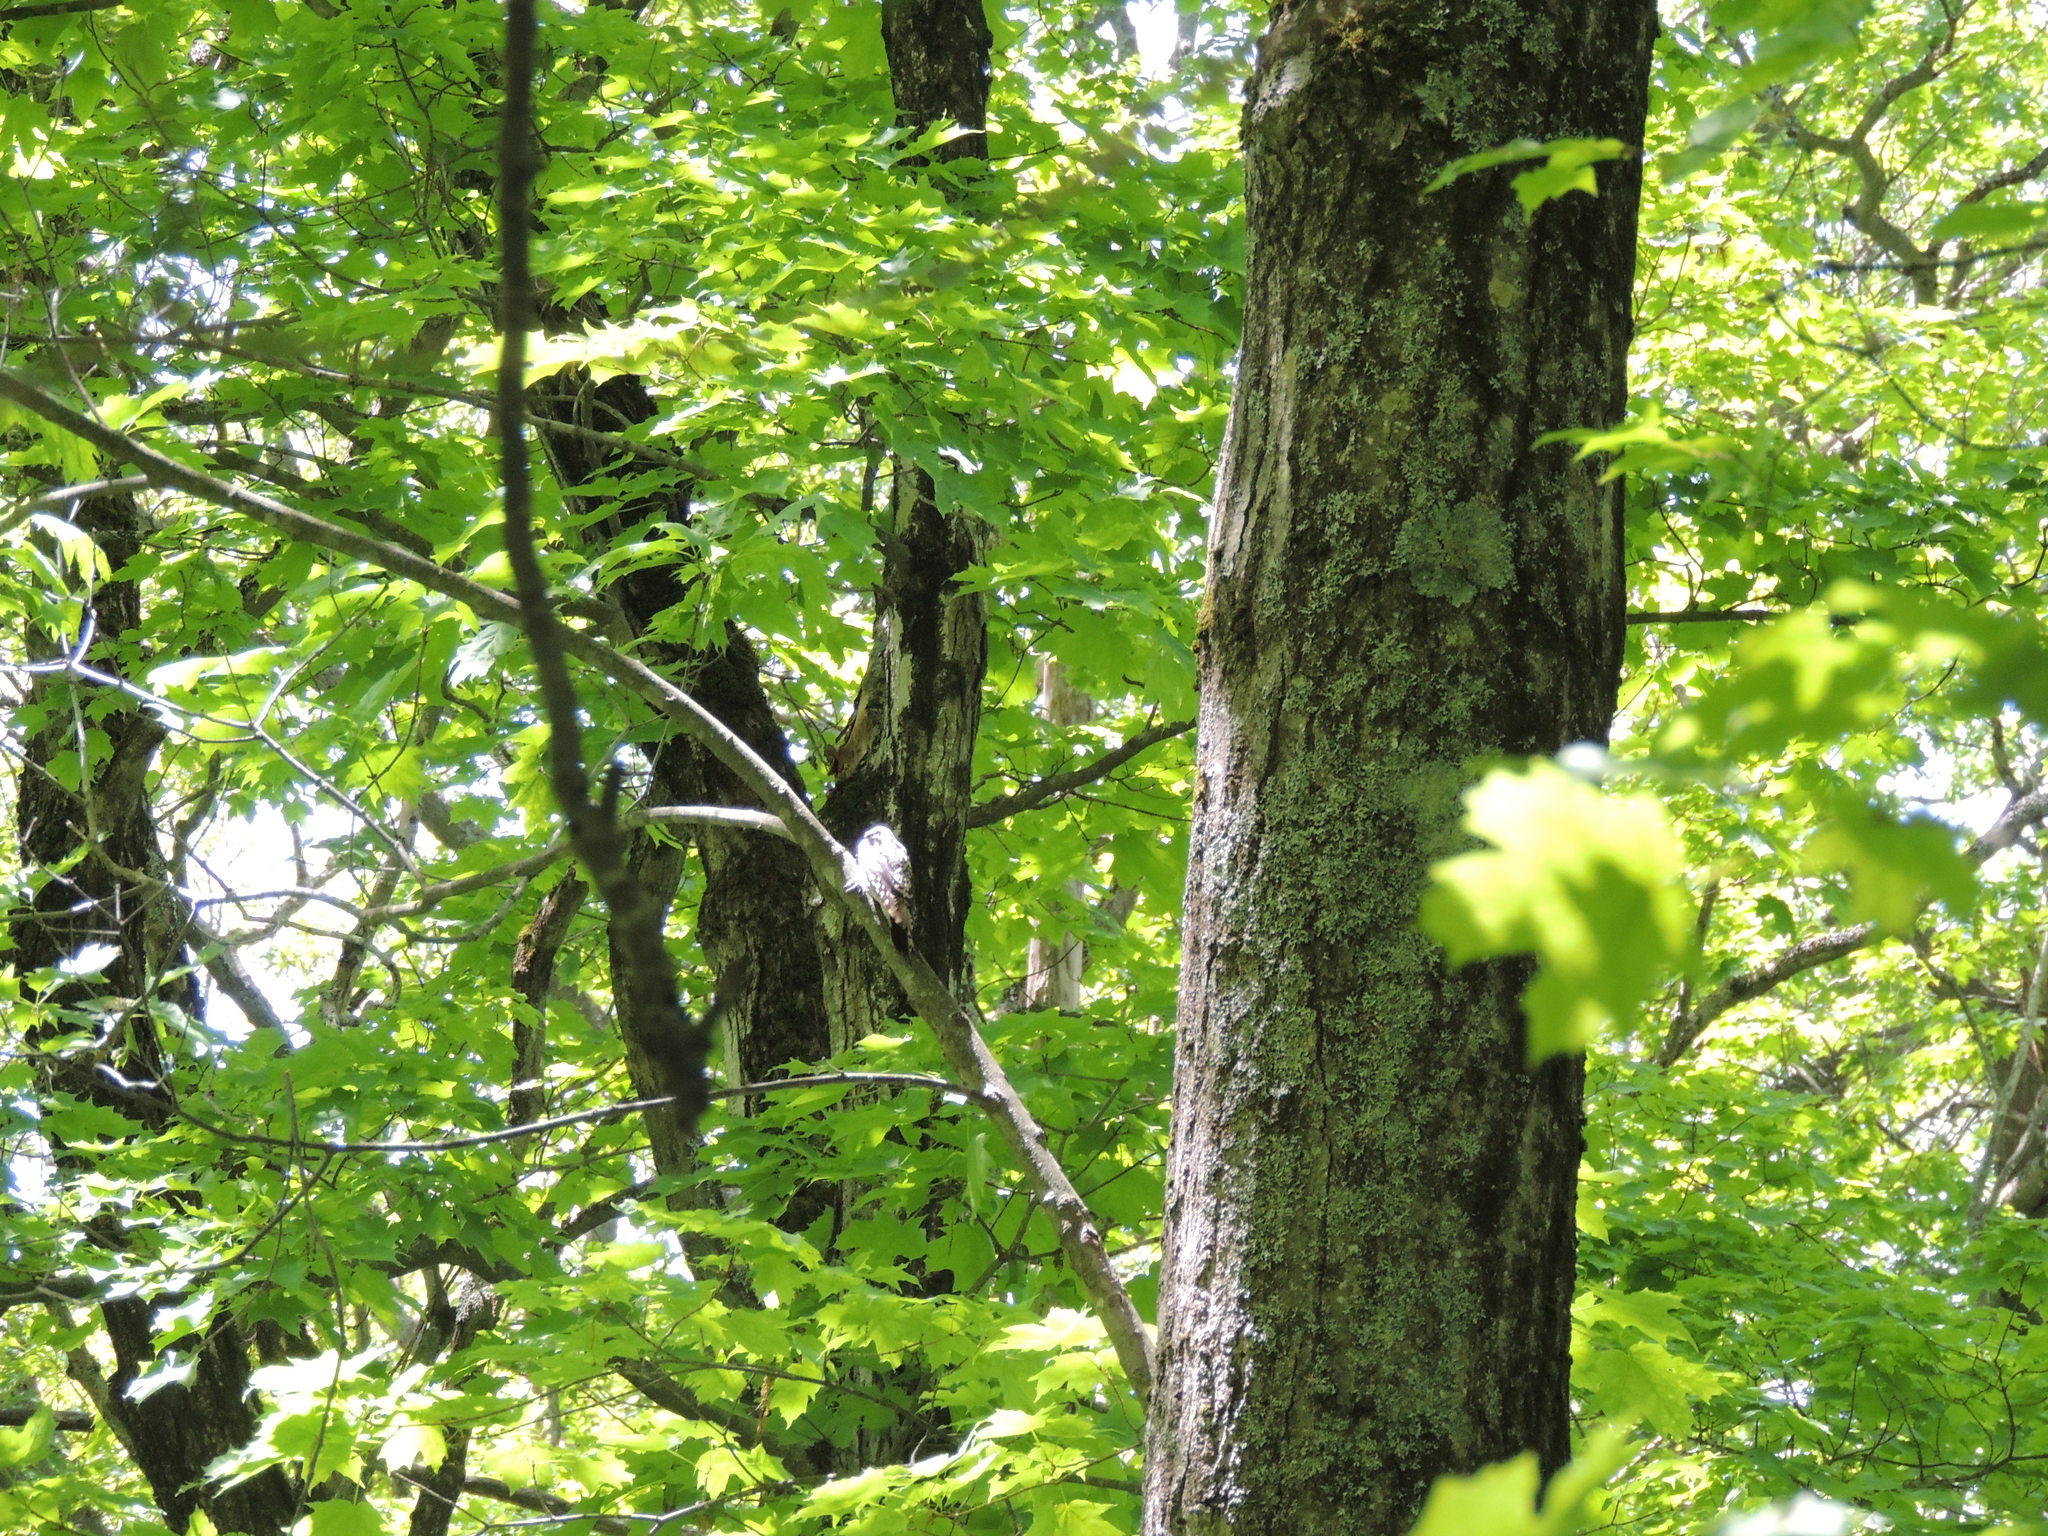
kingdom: Animalia
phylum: Chordata
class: Aves
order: Piciformes
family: Picidae
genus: Sphyrapicus
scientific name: Sphyrapicus varius
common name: Yellow-bellied sapsucker
